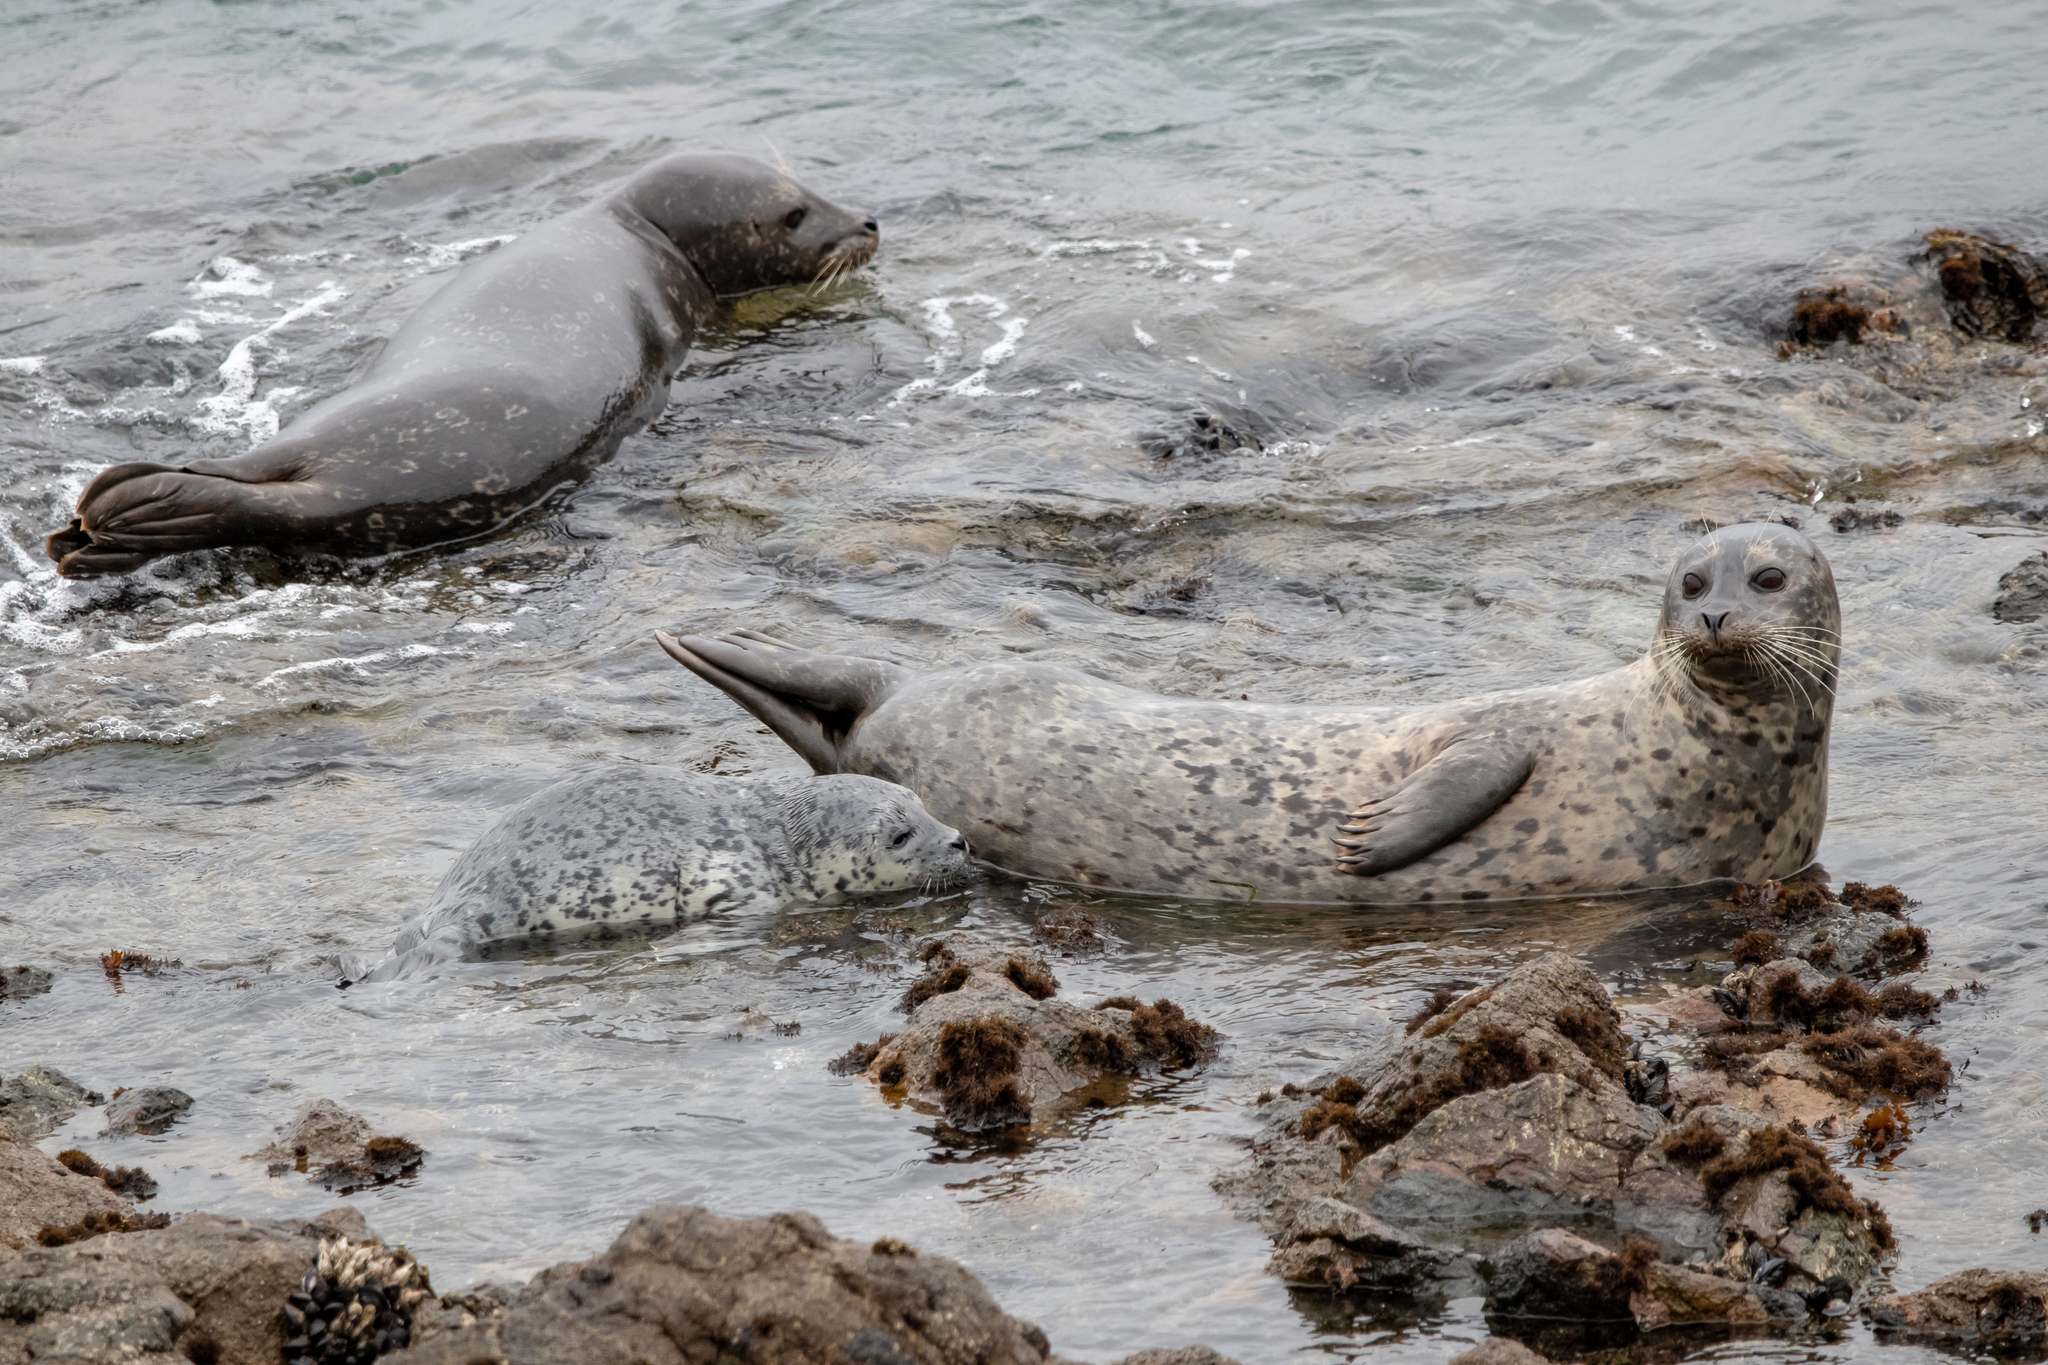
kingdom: Animalia
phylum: Chordata
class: Mammalia
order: Carnivora
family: Phocidae
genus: Phoca
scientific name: Phoca vitulina
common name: Harbor seal
